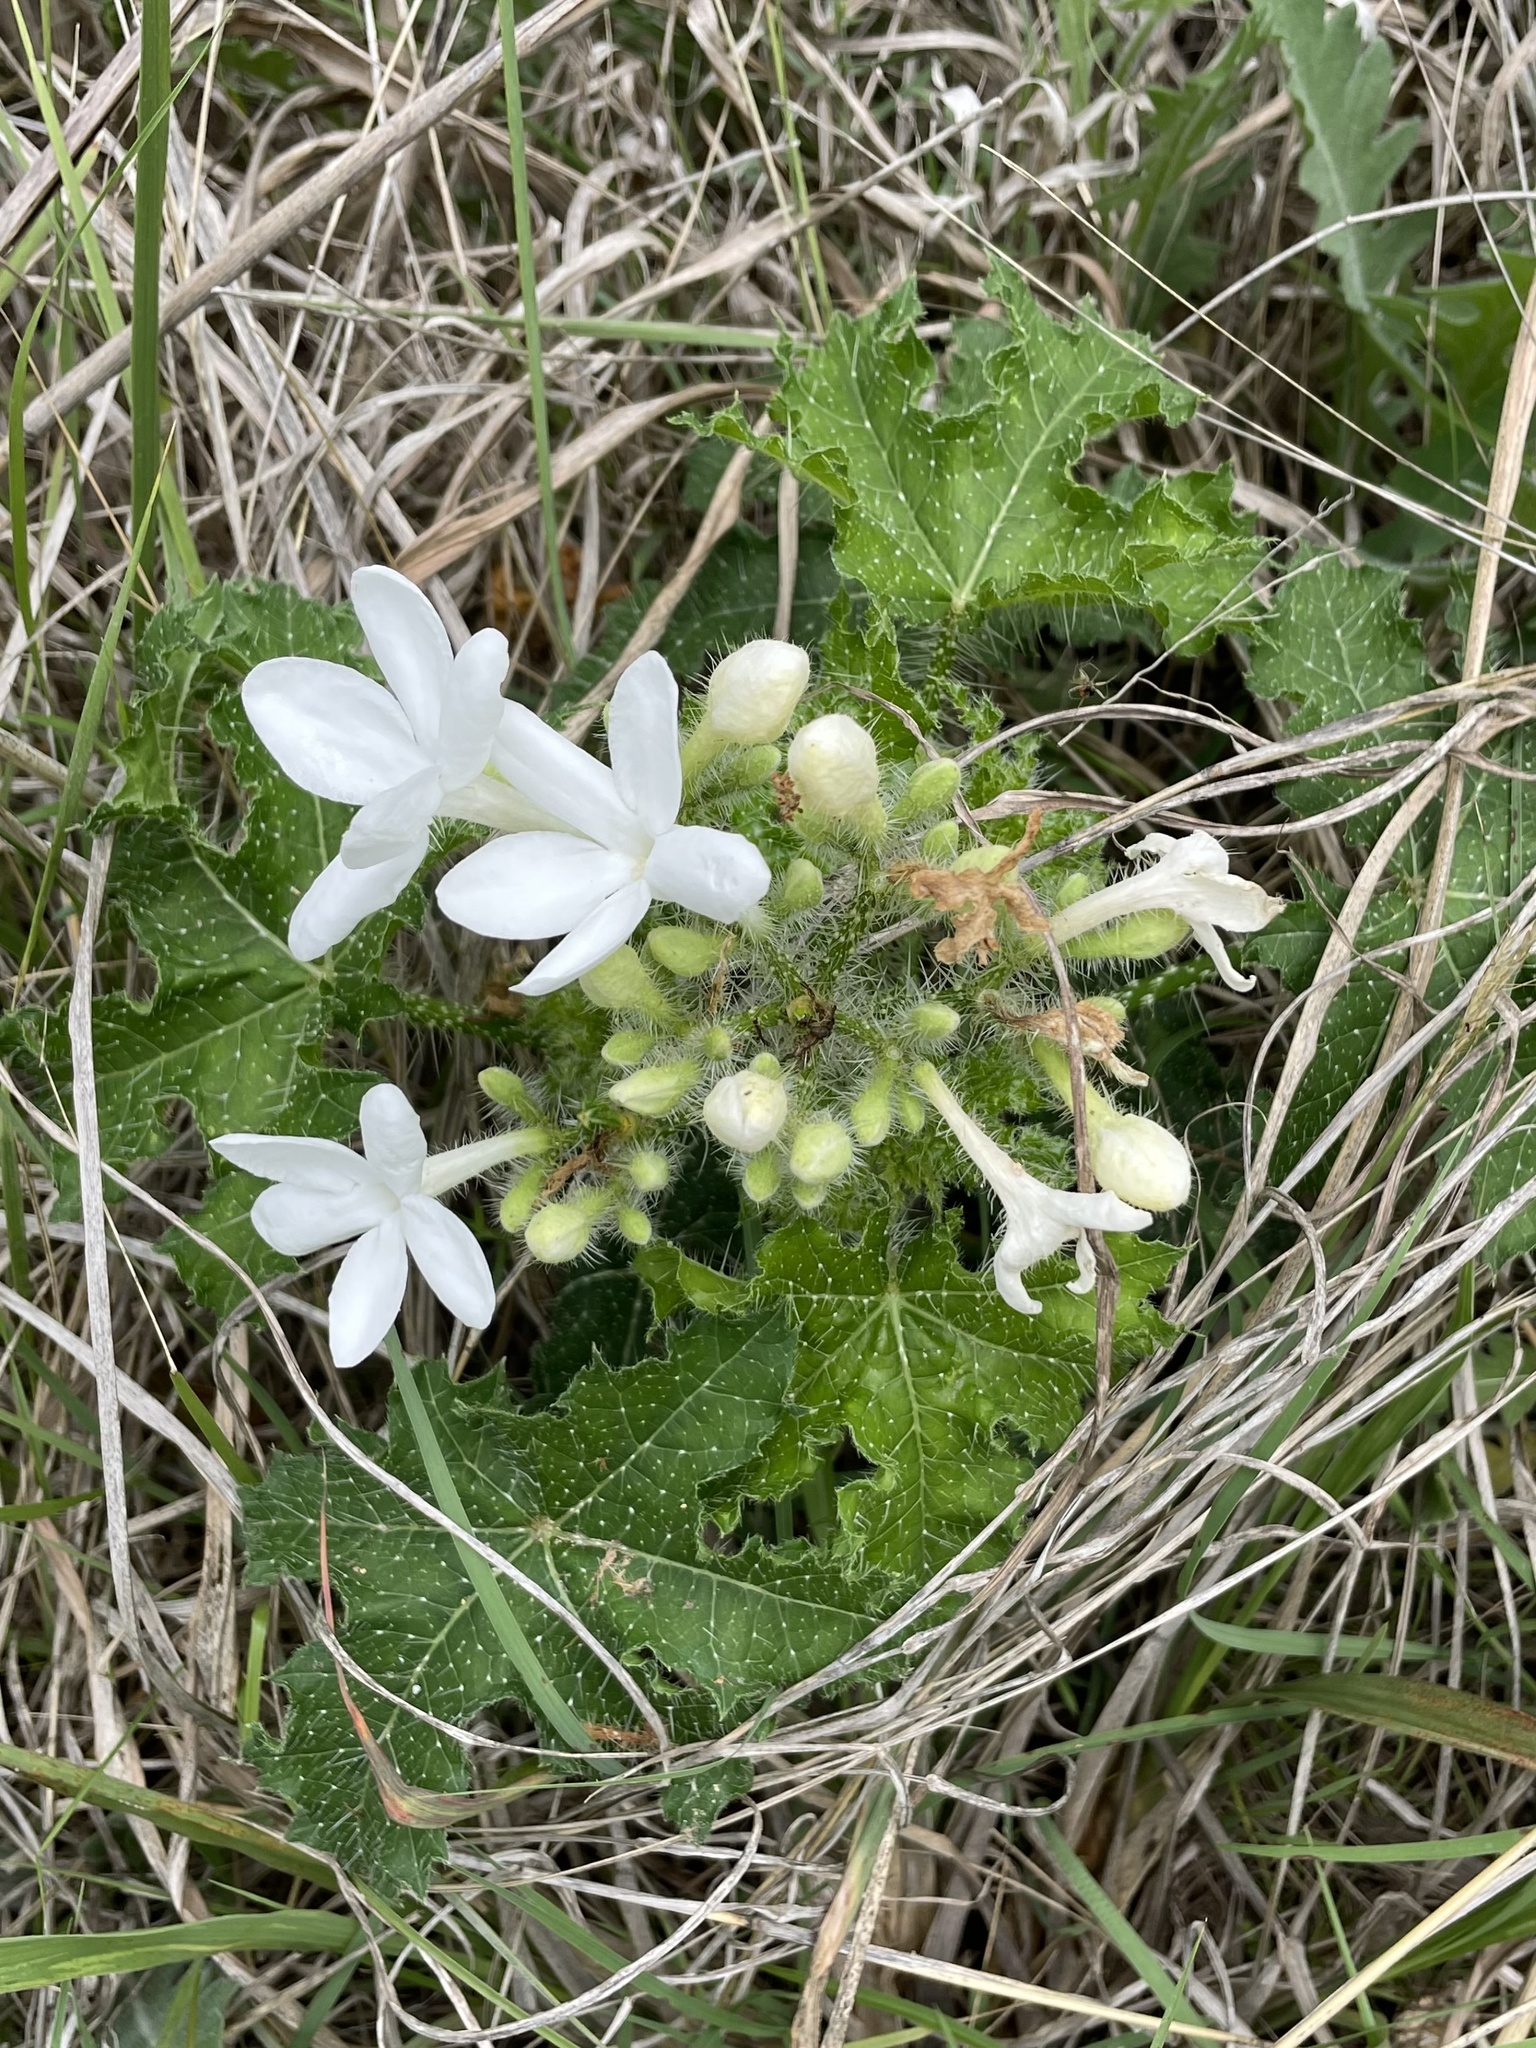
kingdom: Plantae
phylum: Tracheophyta
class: Magnoliopsida
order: Malpighiales
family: Euphorbiaceae
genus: Cnidoscolus
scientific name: Cnidoscolus texanus
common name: Texas bull-nettle
